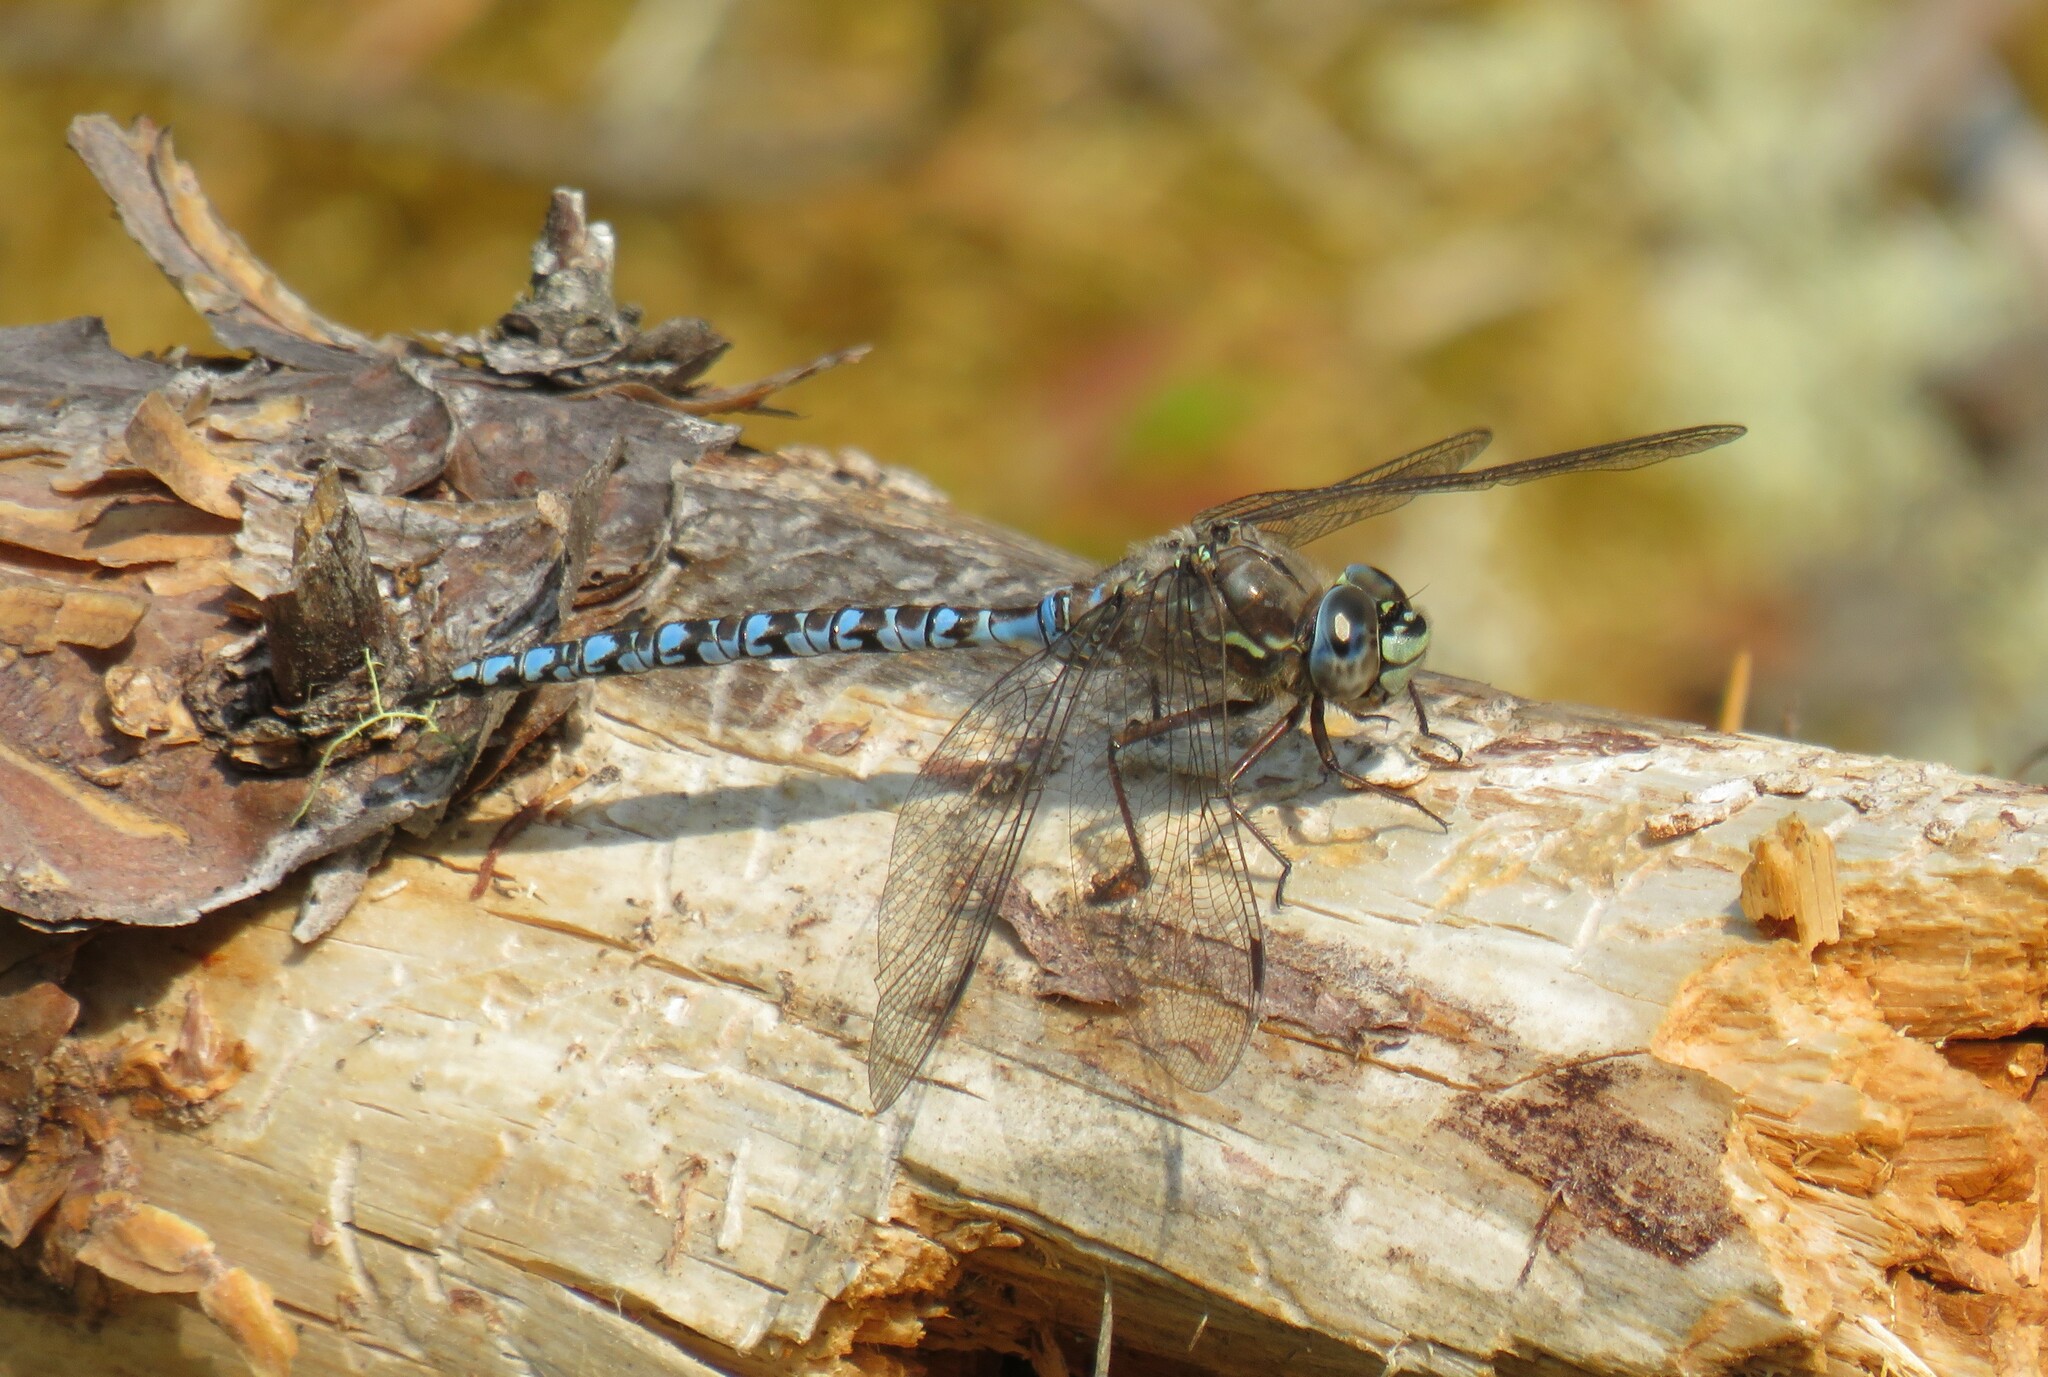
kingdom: Animalia
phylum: Arthropoda
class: Insecta
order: Odonata
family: Aeshnidae
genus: Aeshna
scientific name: Aeshna sitchensis
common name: Zigzag darner
